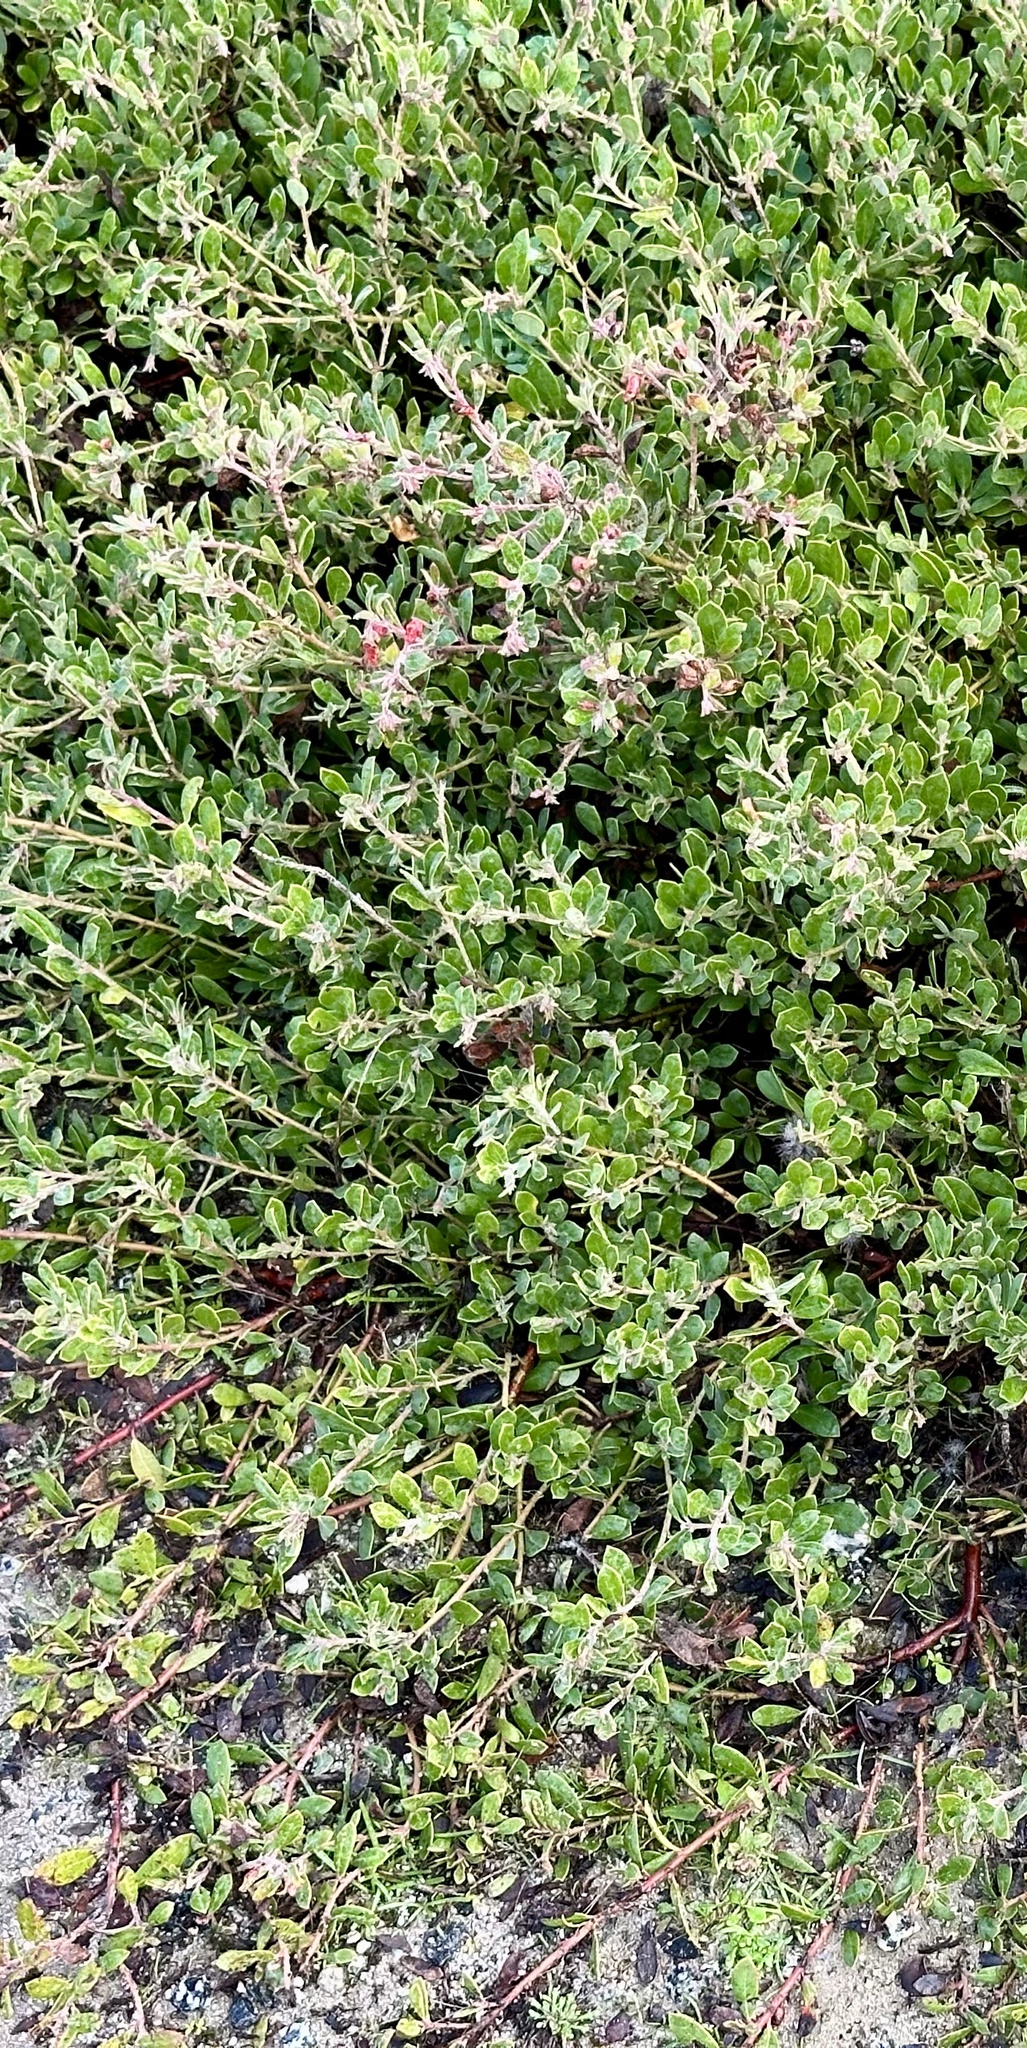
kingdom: Plantae
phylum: Tracheophyta
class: Magnoliopsida
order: Ericales
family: Ericaceae
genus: Arctostaphylos
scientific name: Arctostaphylos pumila
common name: Sandmat manzanita
